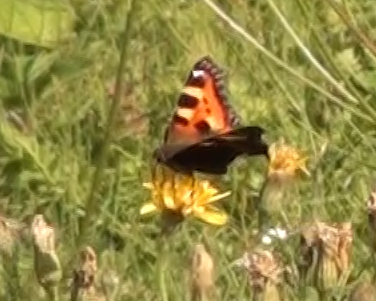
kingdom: Animalia
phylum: Arthropoda
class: Insecta
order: Lepidoptera
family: Nymphalidae
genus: Aglais
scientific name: Aglais urticae
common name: Small tortoiseshell
